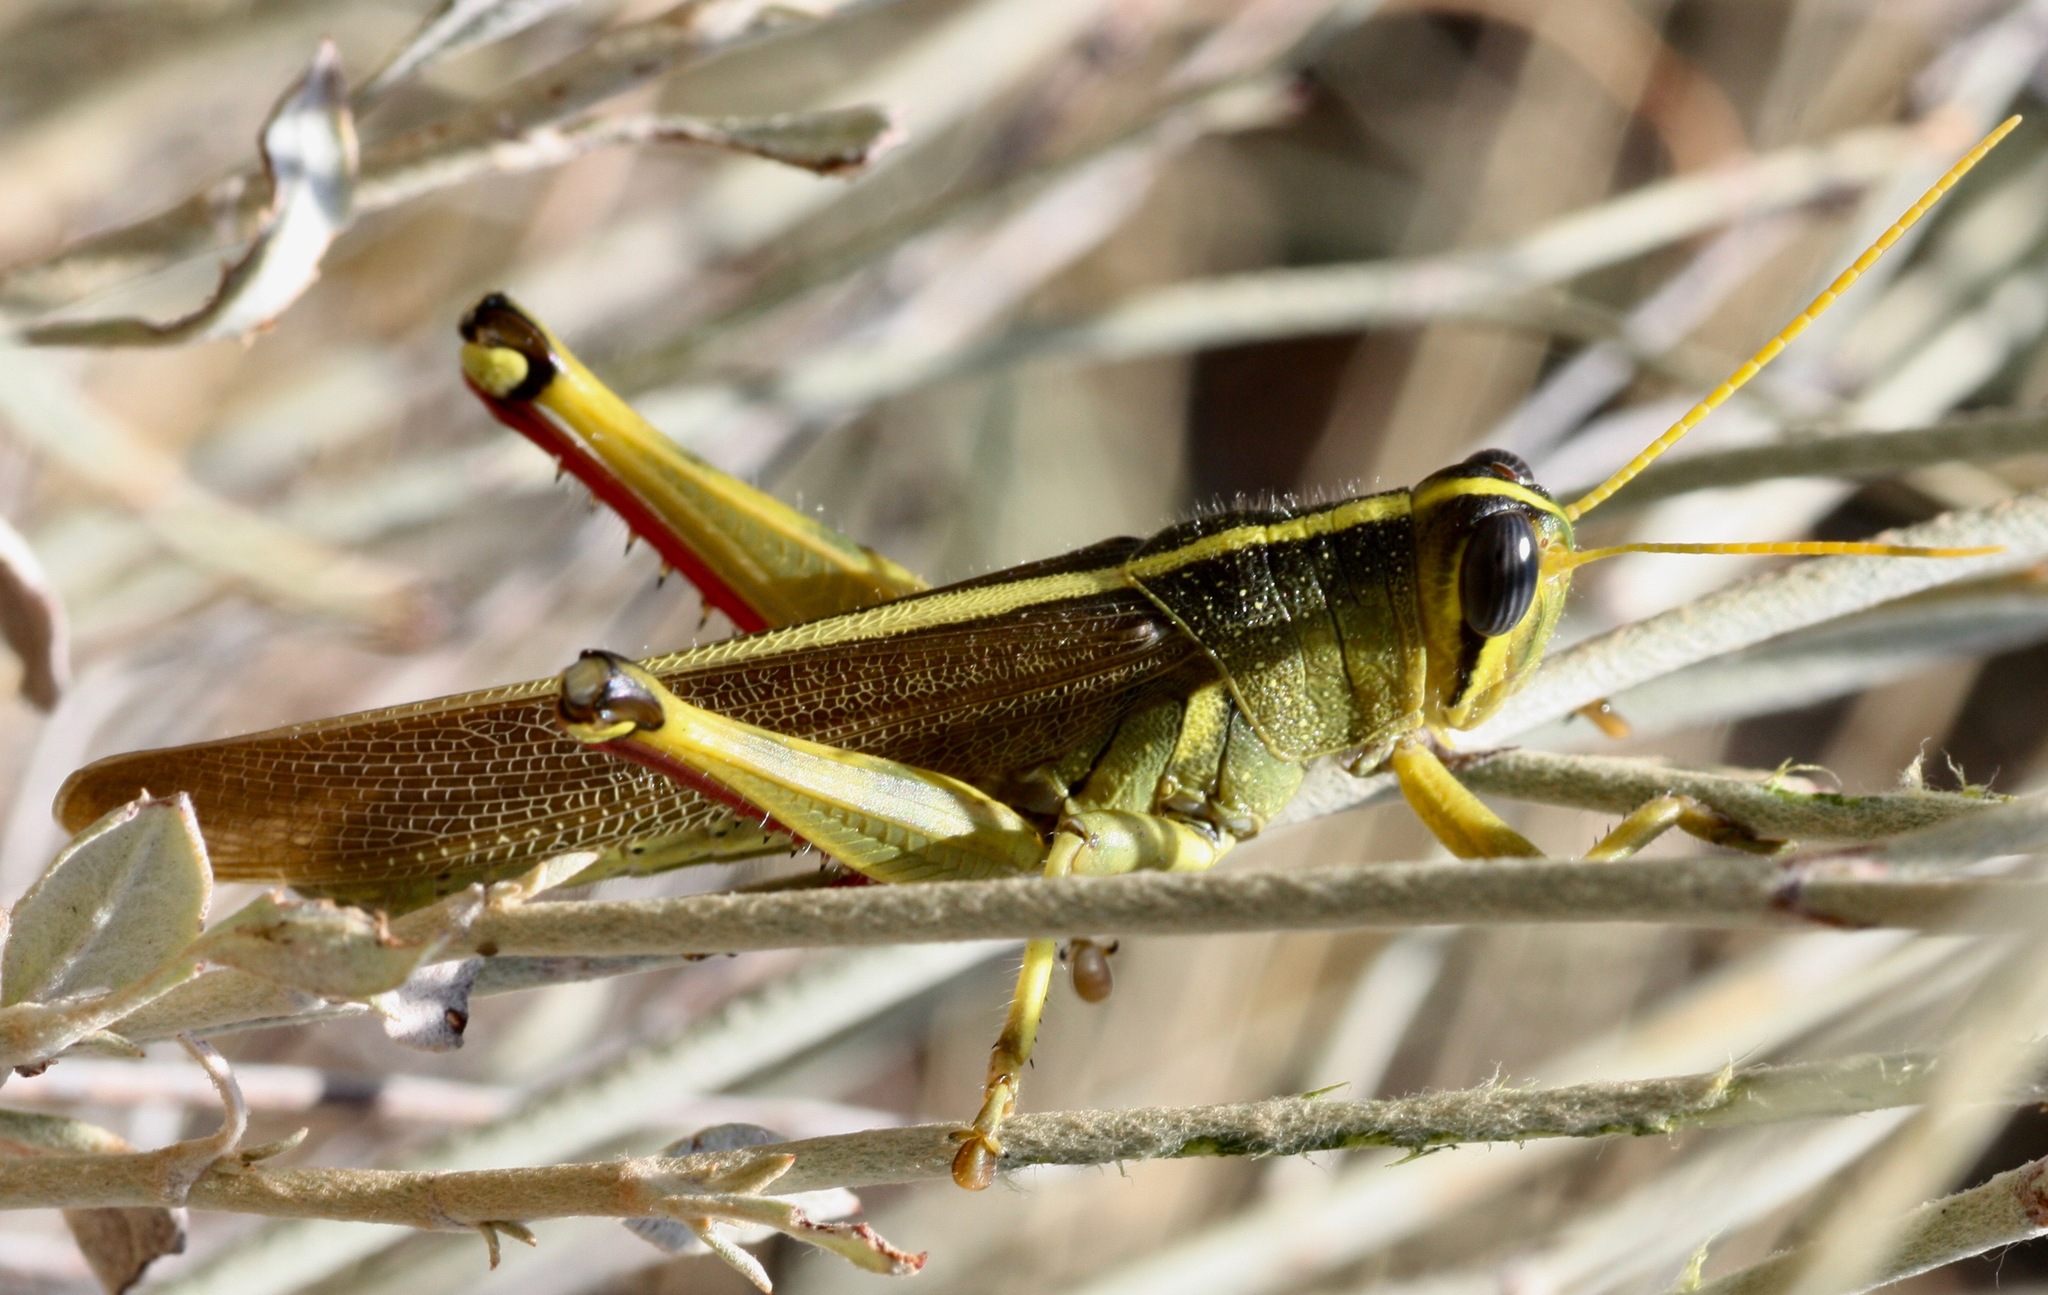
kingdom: Animalia
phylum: Arthropoda
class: Insecta
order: Orthoptera
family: Acrididae
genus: Schistocerca
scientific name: Schistocerca lineata
